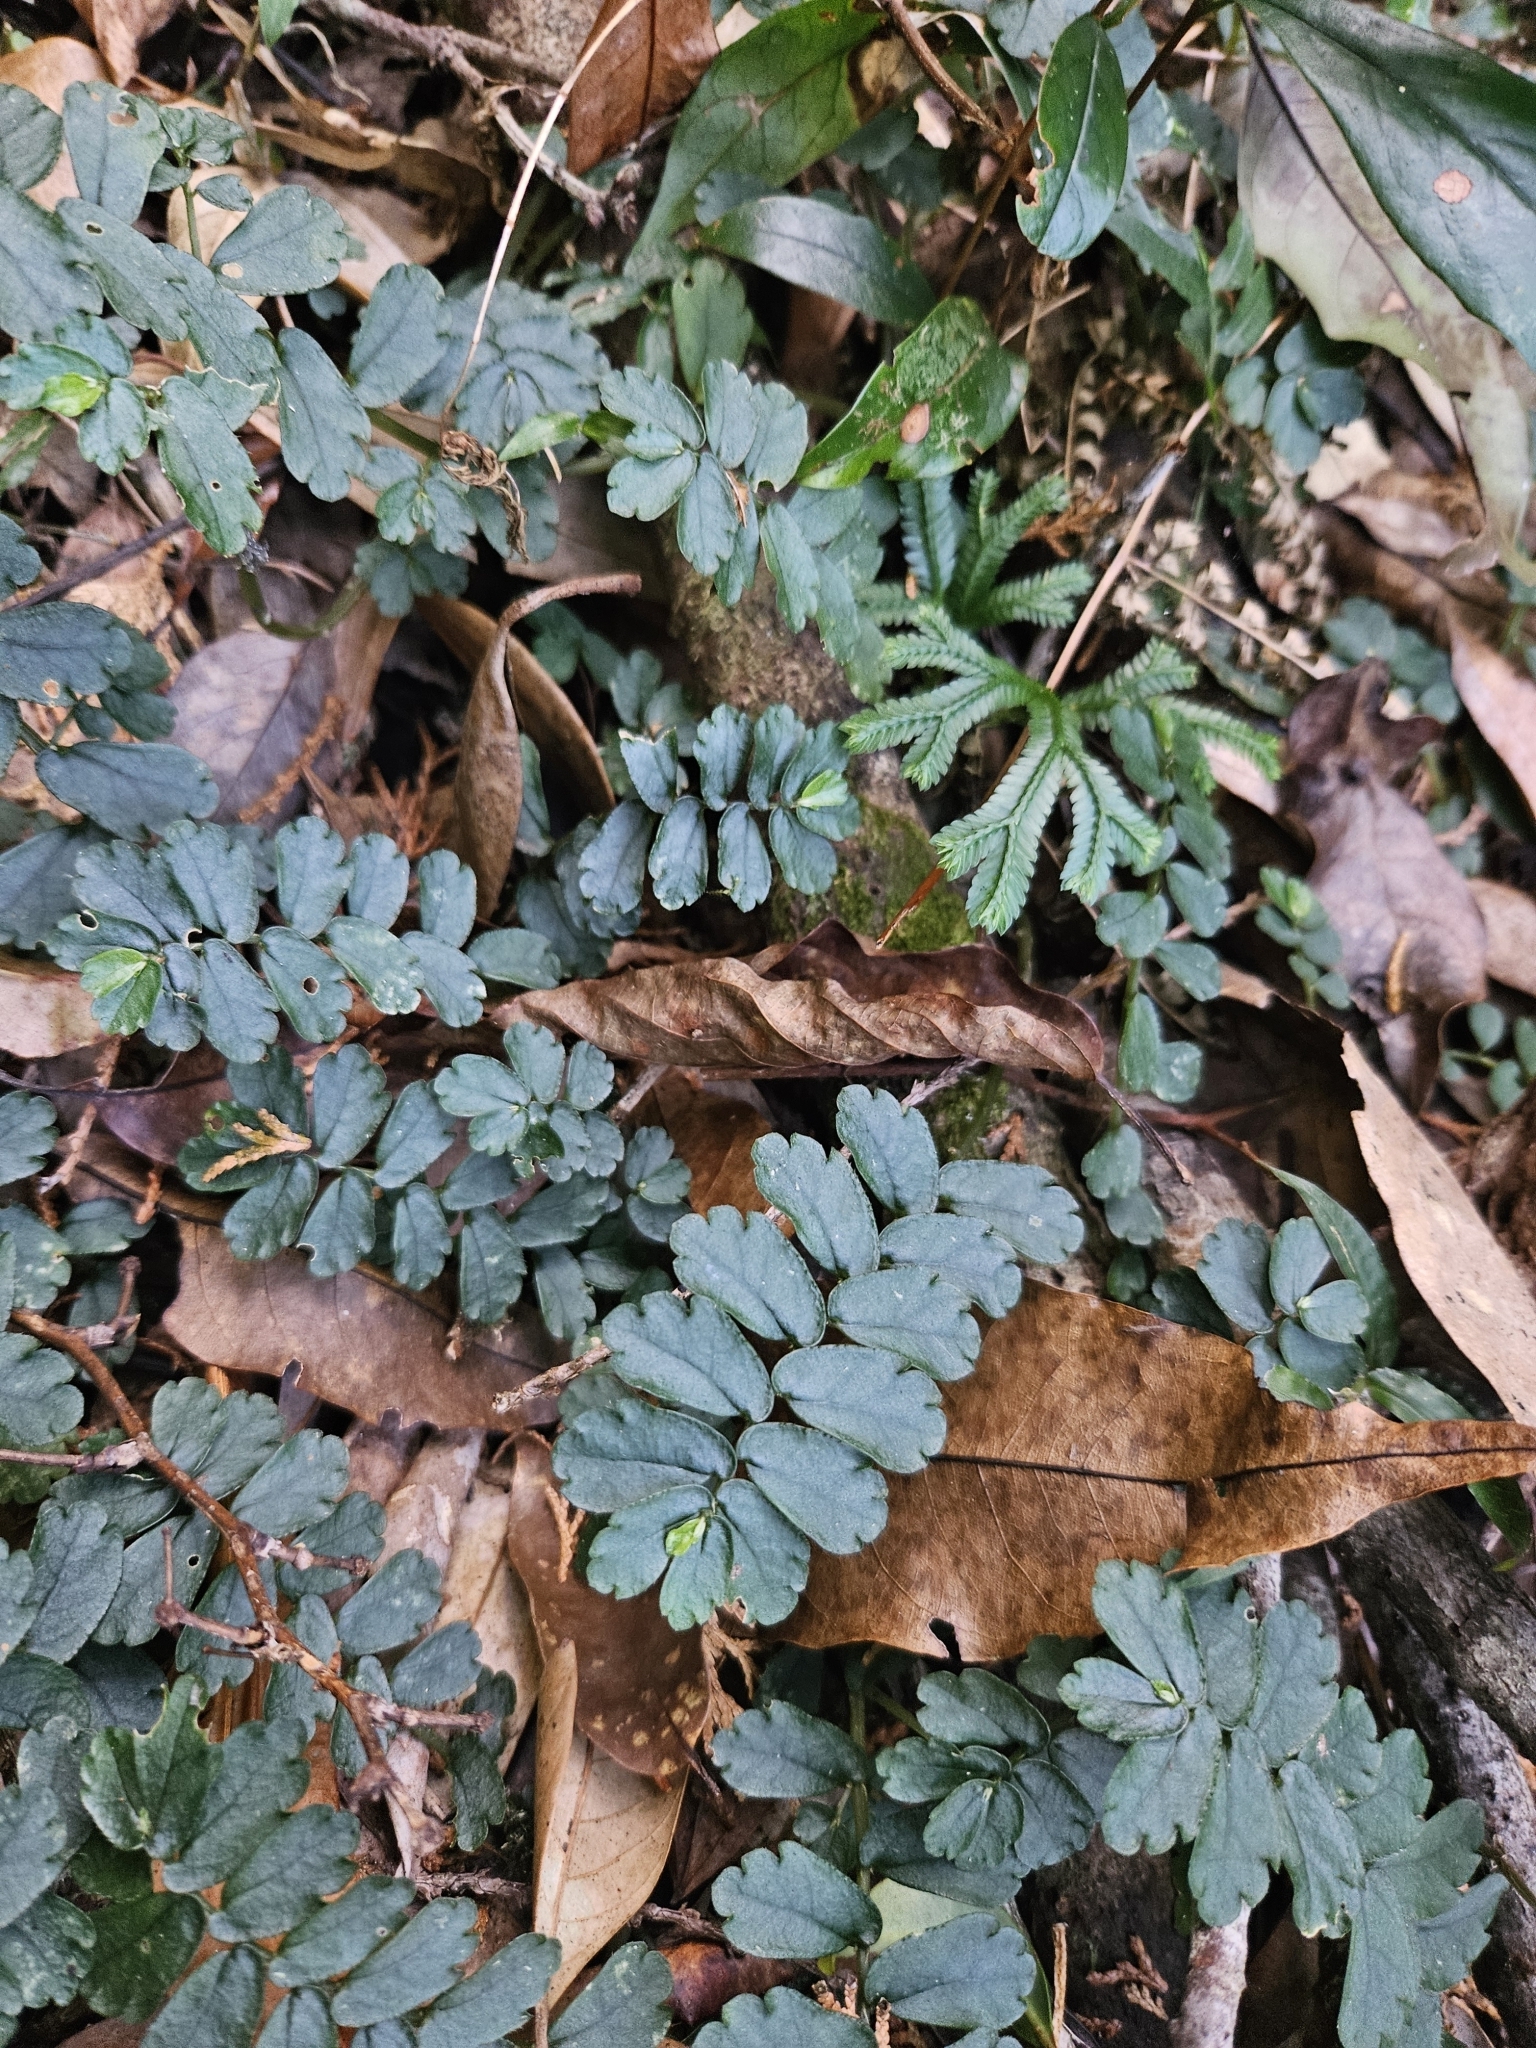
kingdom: Plantae
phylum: Tracheophyta
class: Magnoliopsida
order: Rosales
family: Urticaceae
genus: Elatostema
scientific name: Elatostema obtusum
